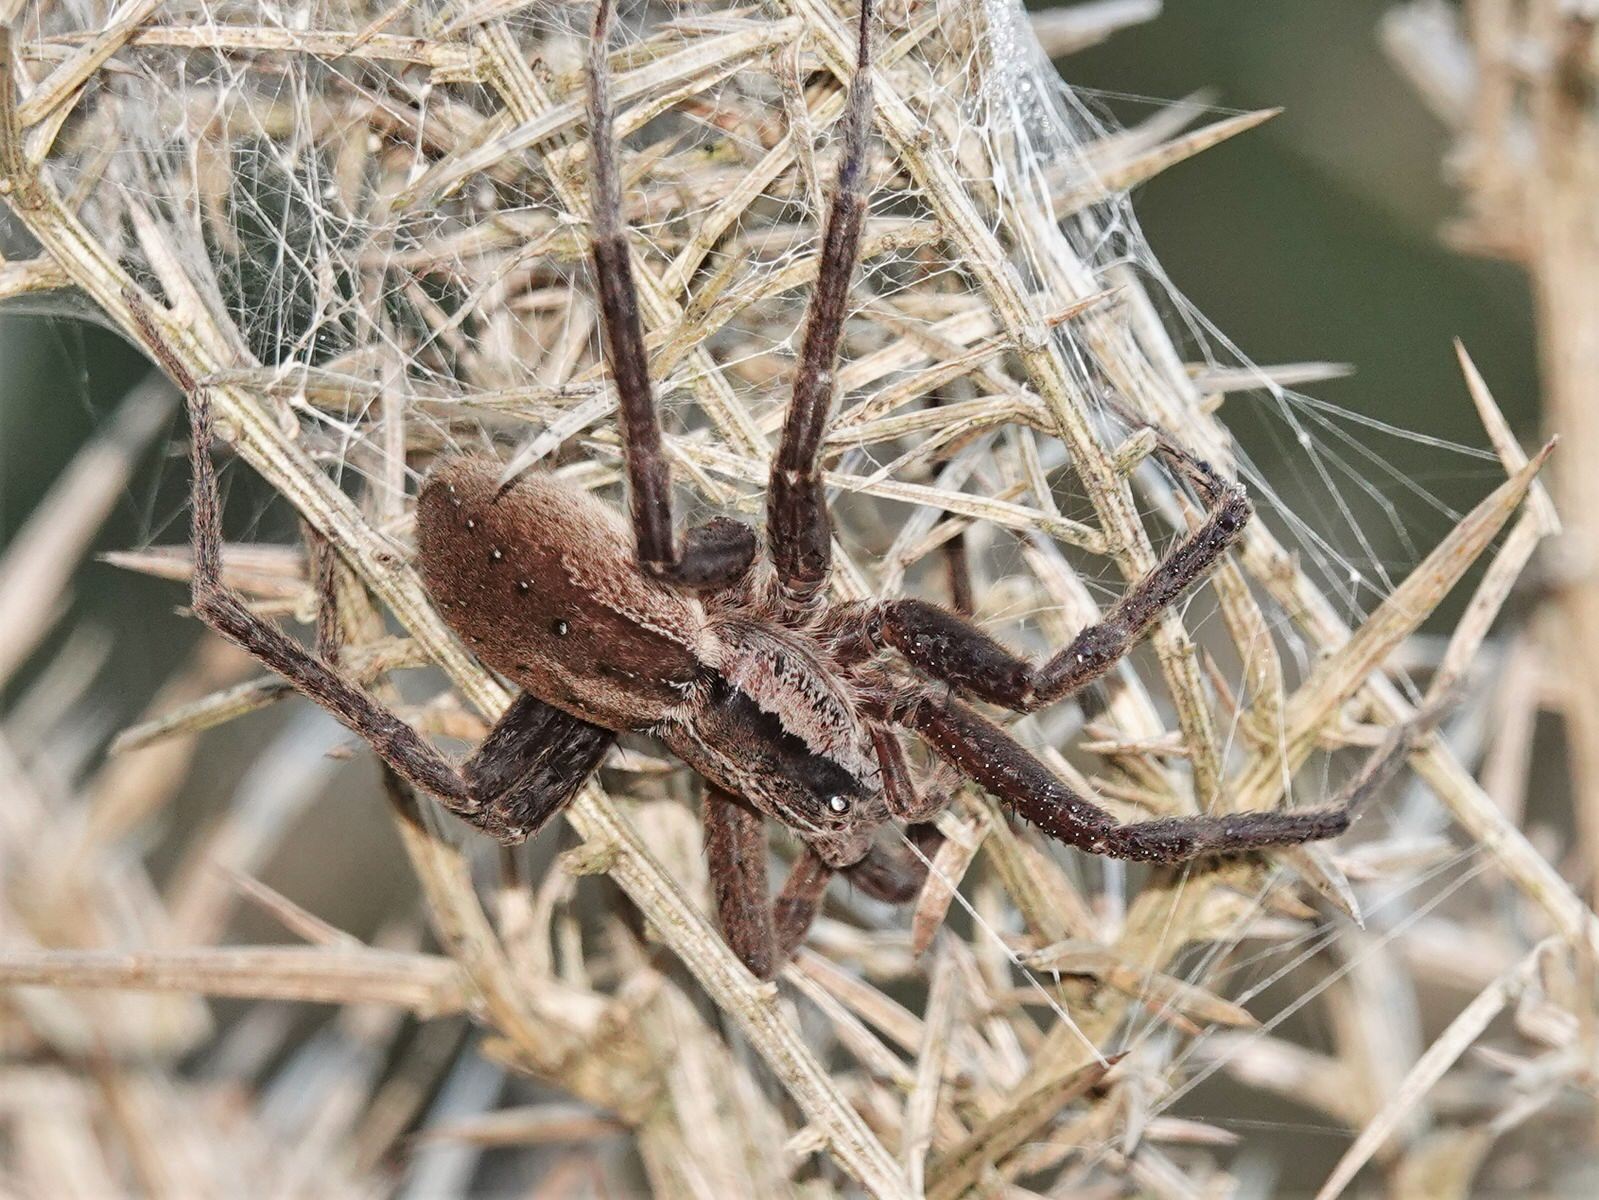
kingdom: Animalia
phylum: Arthropoda
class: Arachnida
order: Araneae
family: Pisauridae
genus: Dolomedes
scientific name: Dolomedes minor
